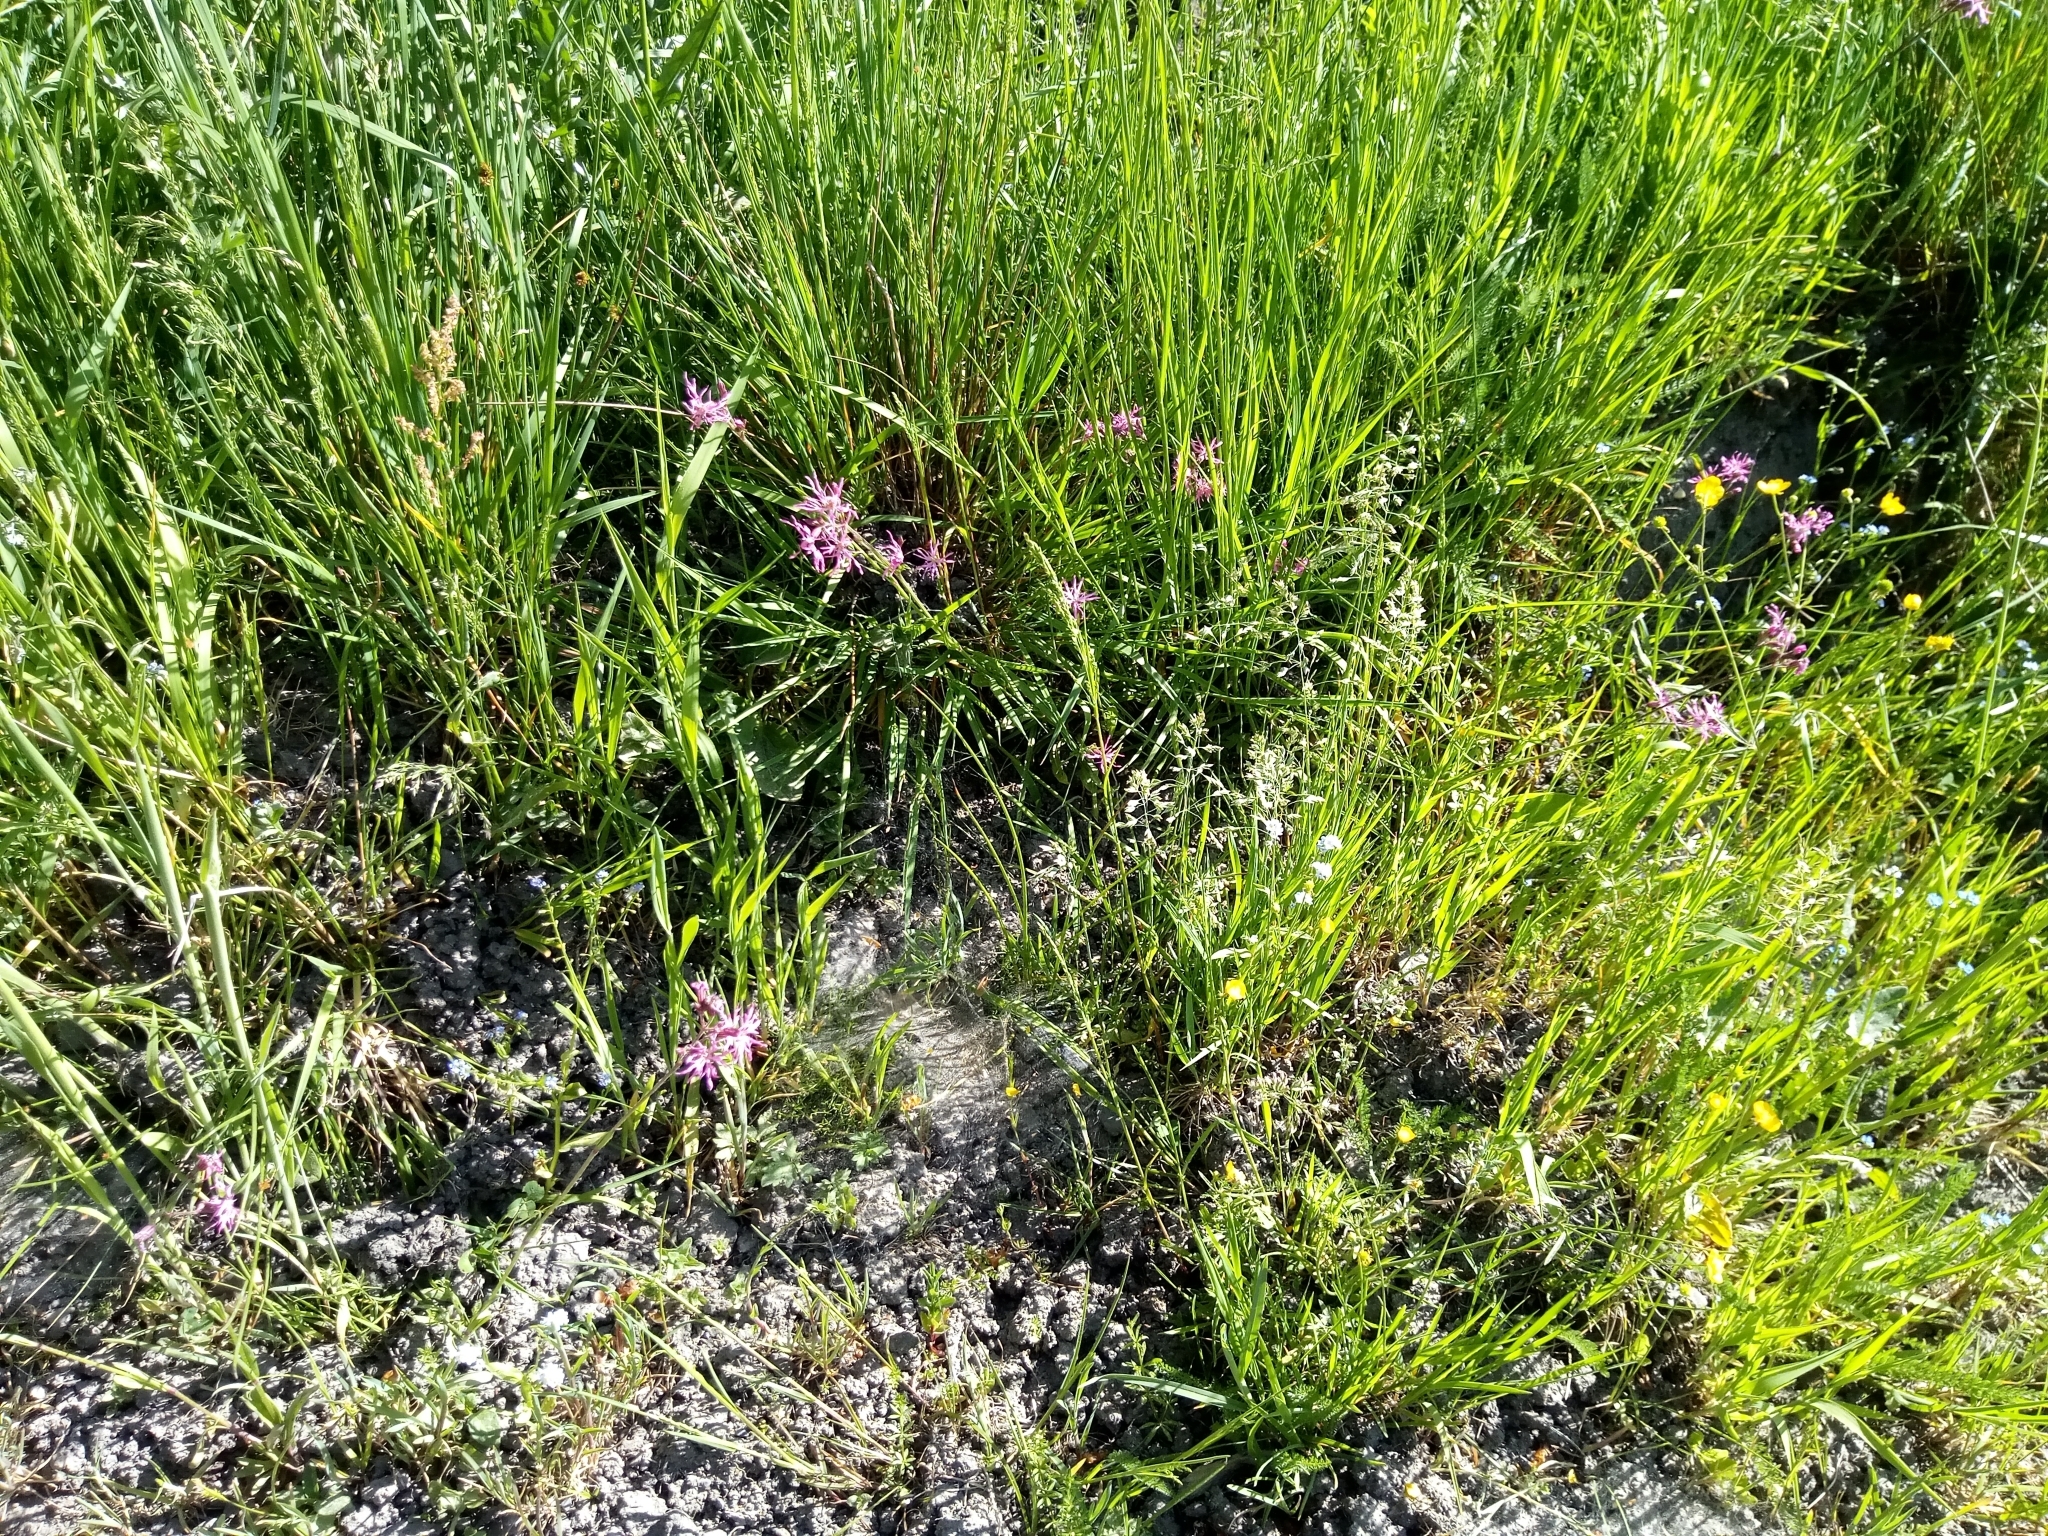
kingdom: Plantae
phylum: Tracheophyta
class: Magnoliopsida
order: Caryophyllales
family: Caryophyllaceae
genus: Silene
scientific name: Silene flos-cuculi
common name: Ragged-robin
